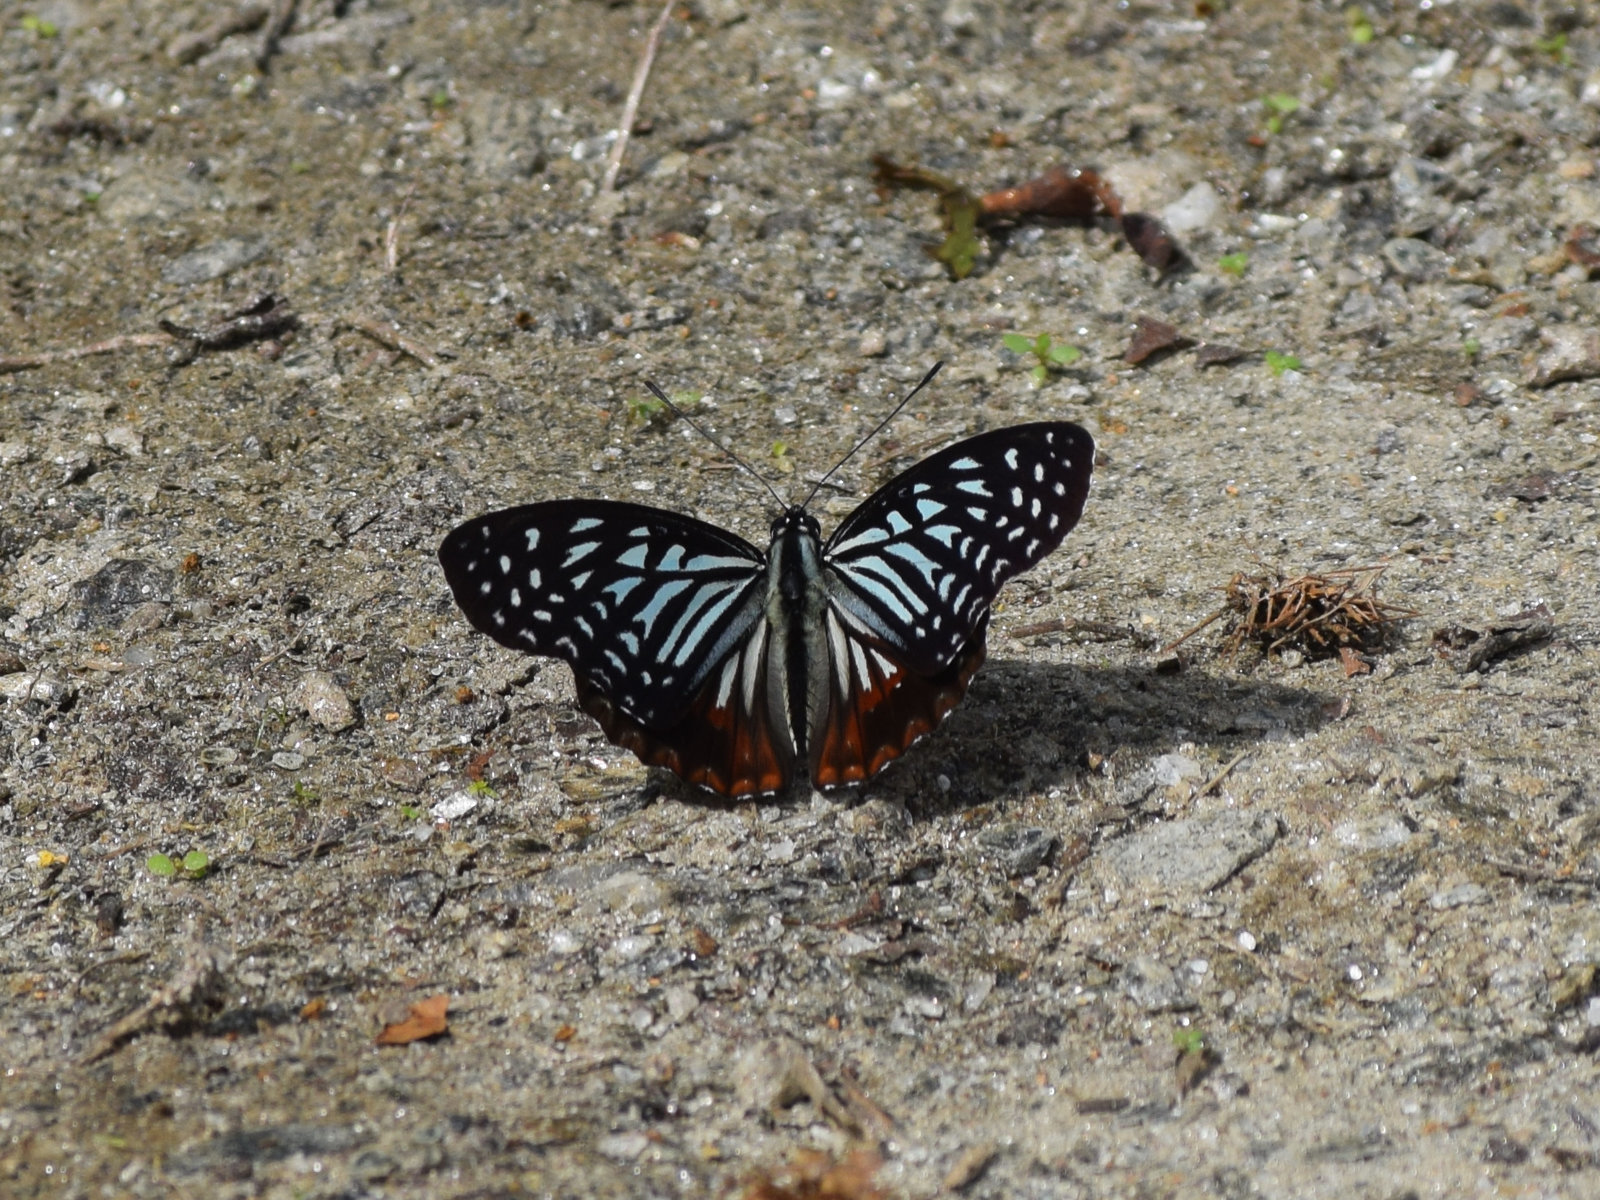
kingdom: Animalia
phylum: Arthropoda
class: Insecta
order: Lepidoptera
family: Nymphalidae
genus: Hestinalis
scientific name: Hestinalis nama
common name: Circe
